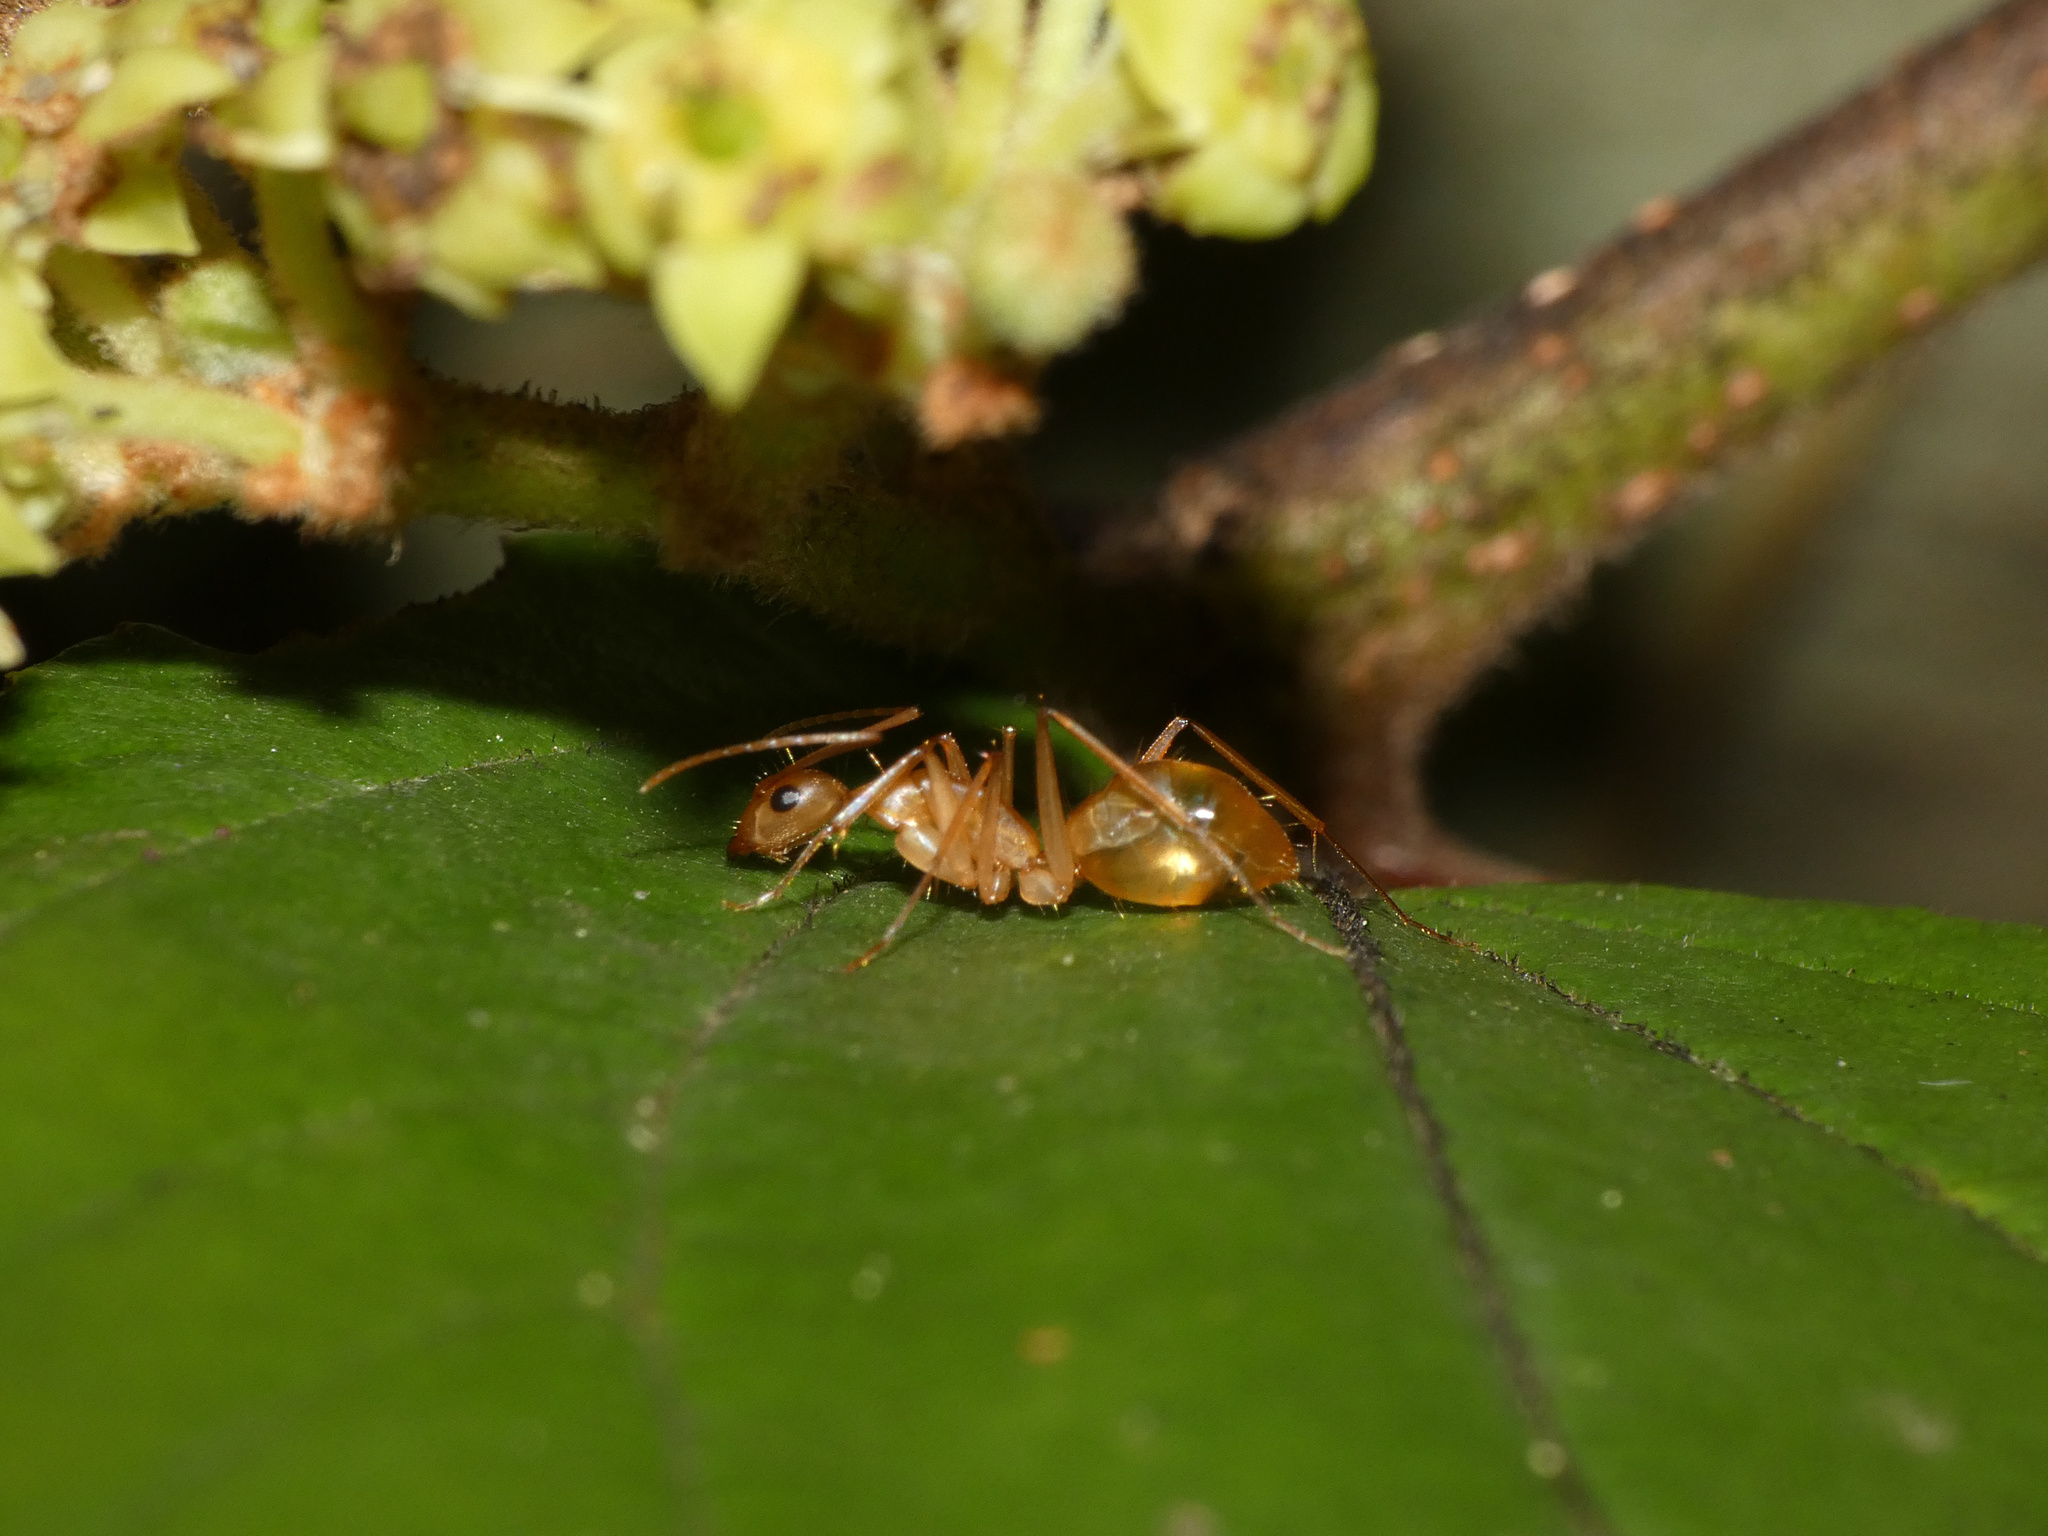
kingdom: Animalia
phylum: Arthropoda
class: Insecta
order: Hymenoptera
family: Formicidae
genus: Camponotus
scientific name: Camponotus maculatus
